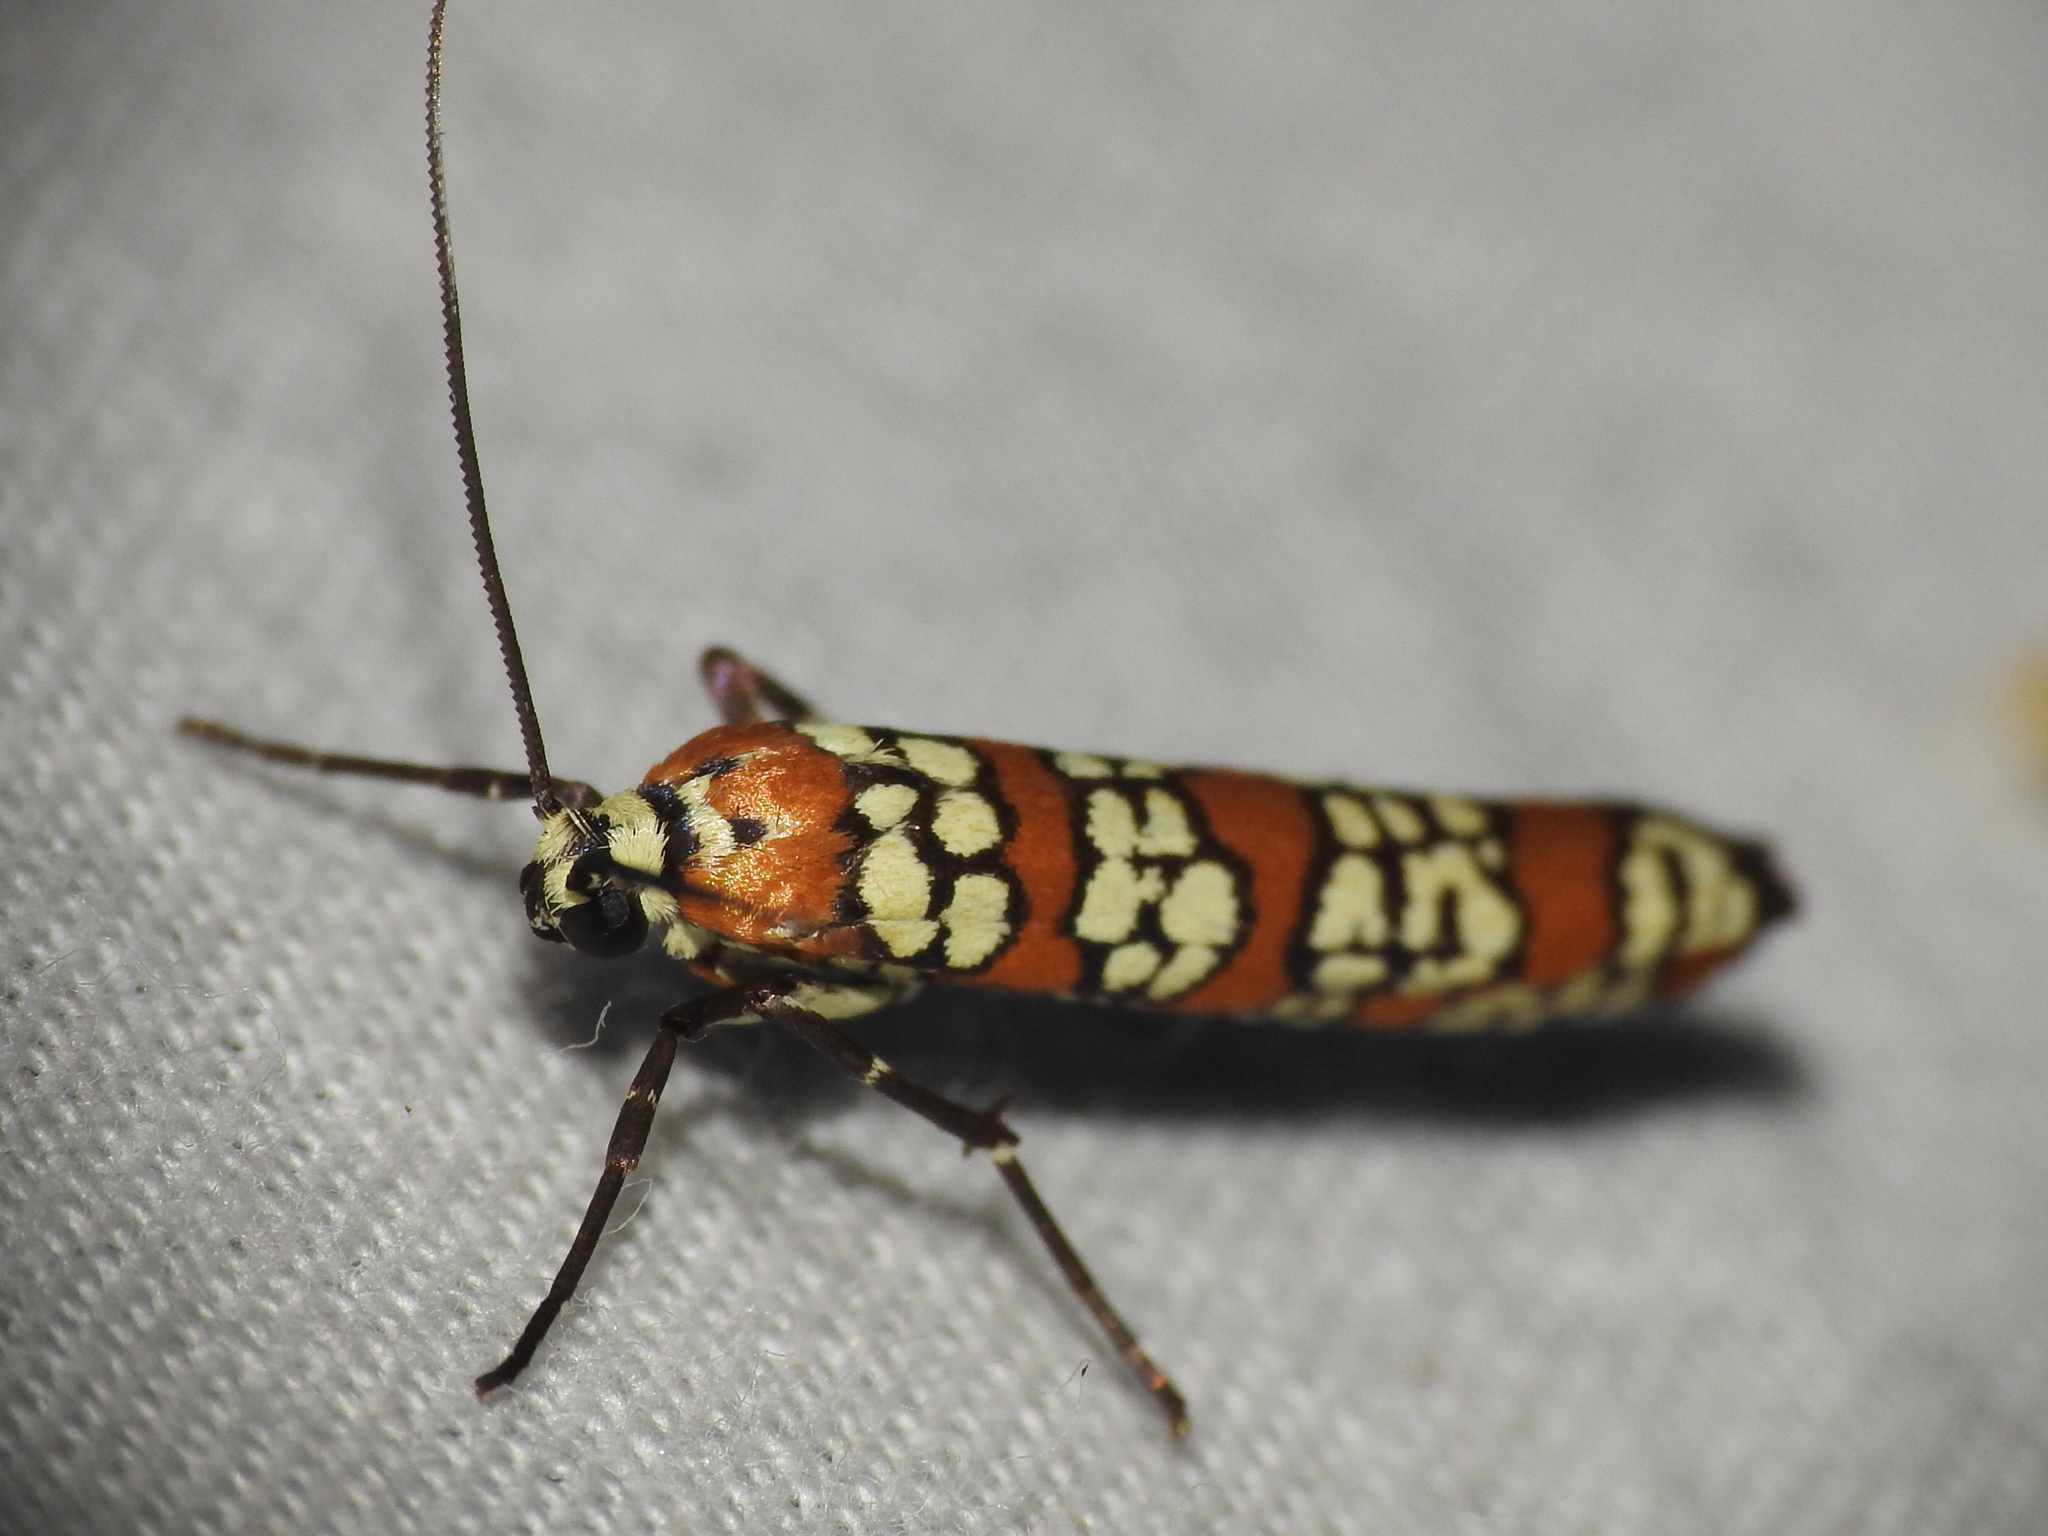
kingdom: Animalia
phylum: Arthropoda
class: Insecta
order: Lepidoptera
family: Attevidae
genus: Atteva
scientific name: Atteva punctella
